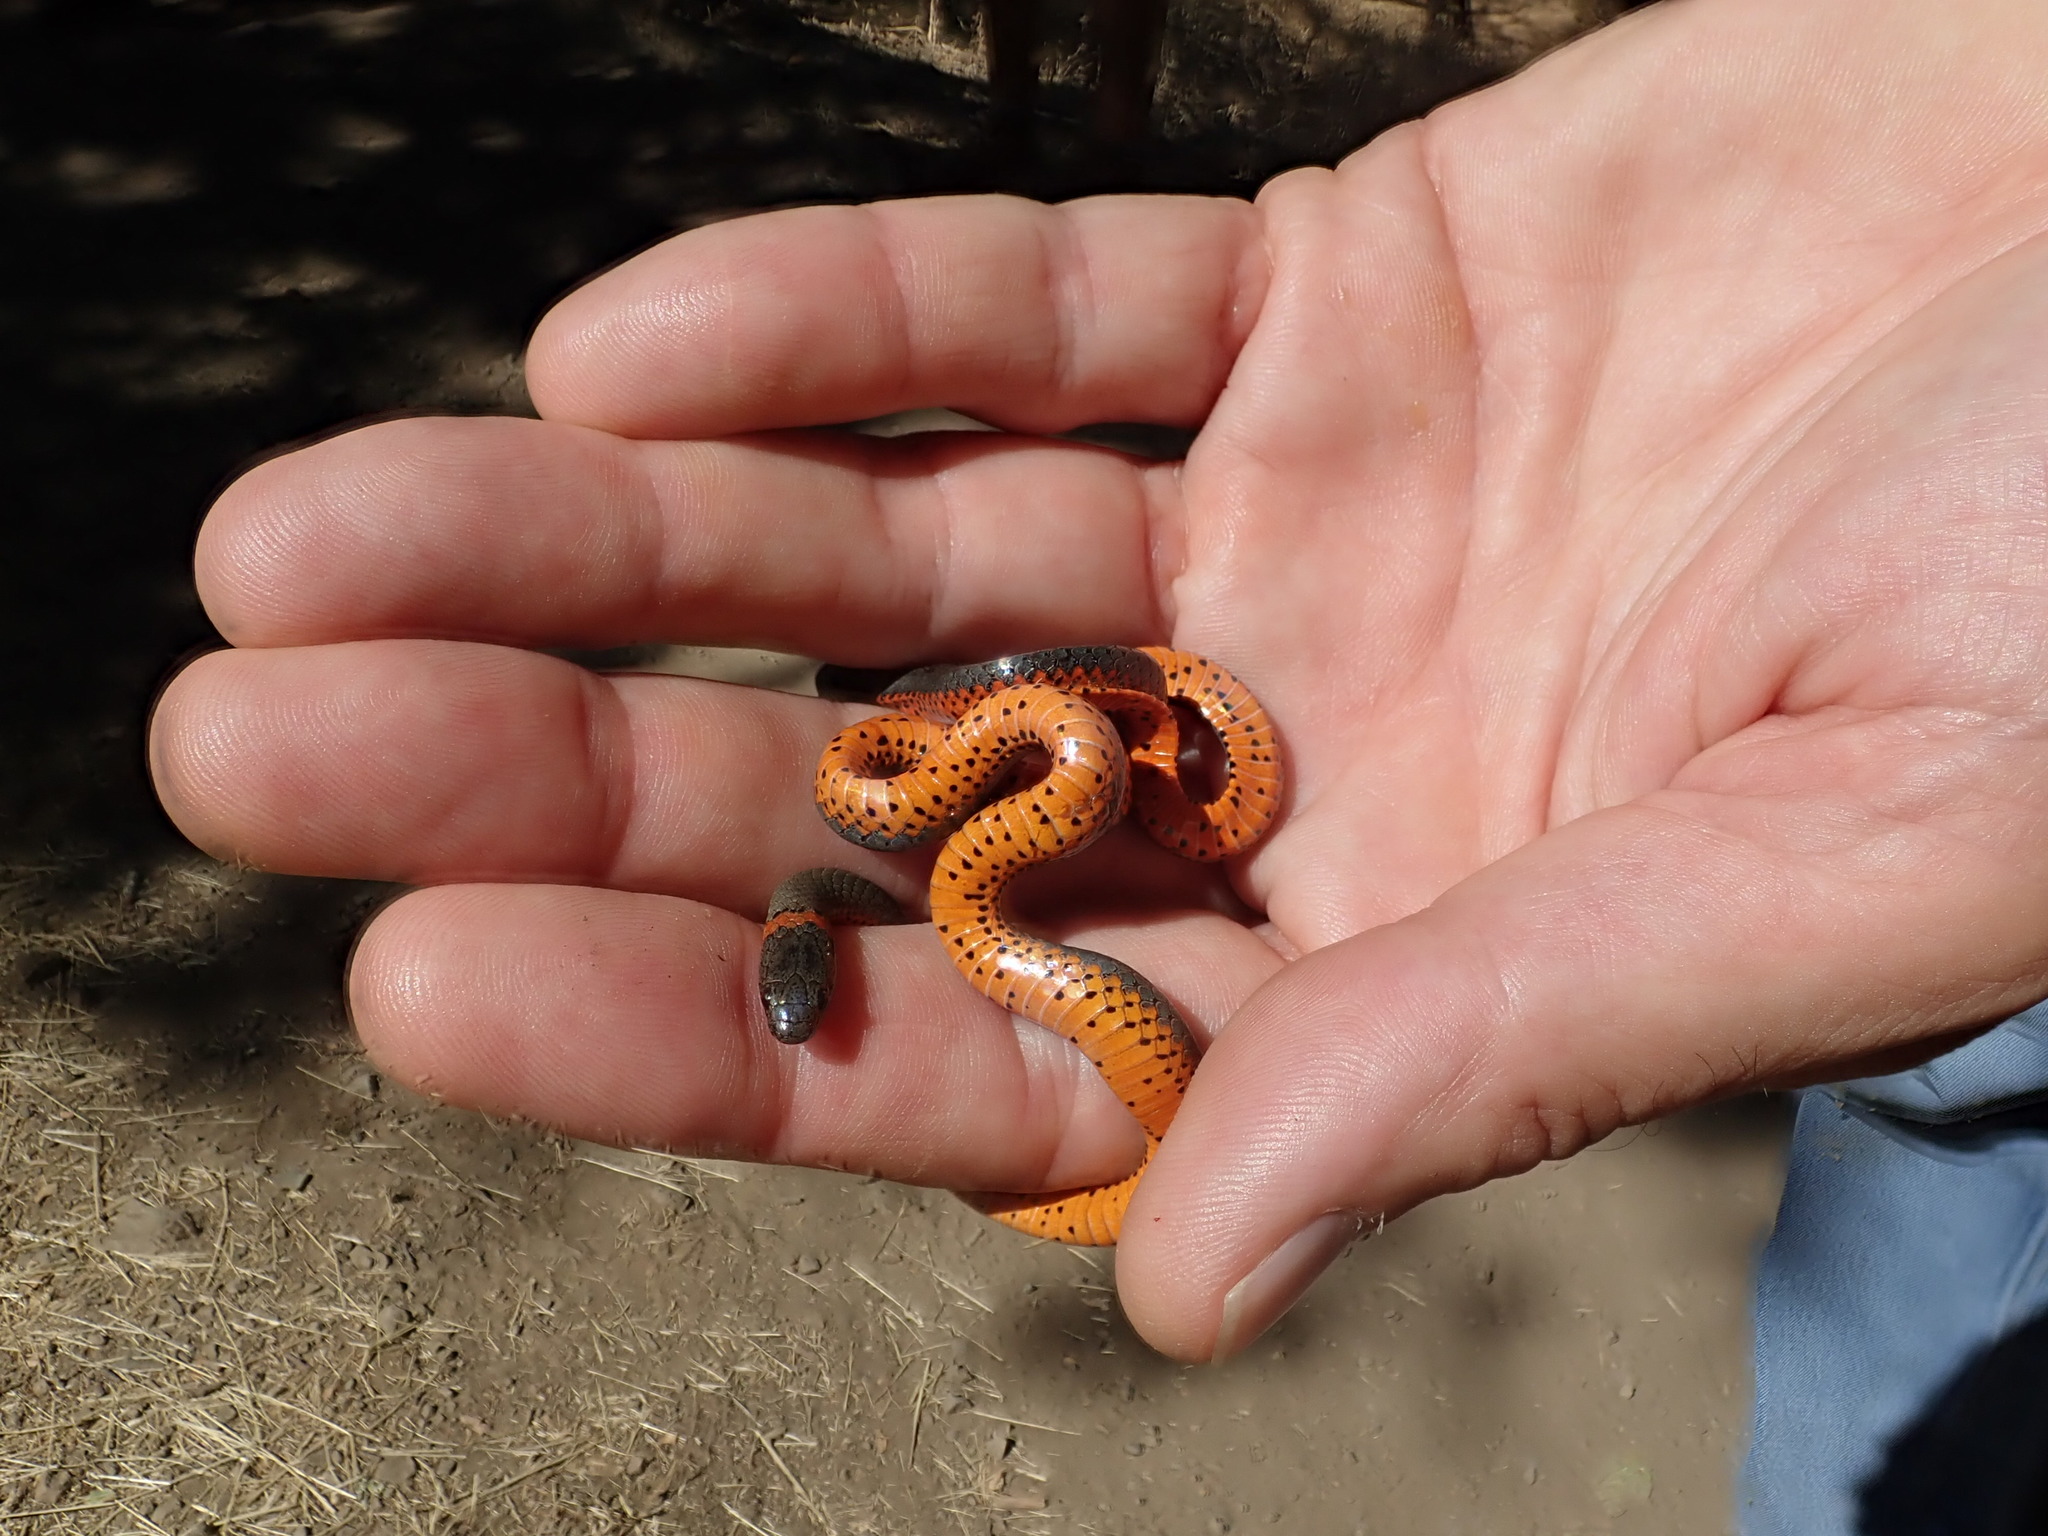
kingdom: Animalia
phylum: Chordata
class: Squamata
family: Colubridae
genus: Diadophis
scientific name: Diadophis punctatus
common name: Ringneck snake
